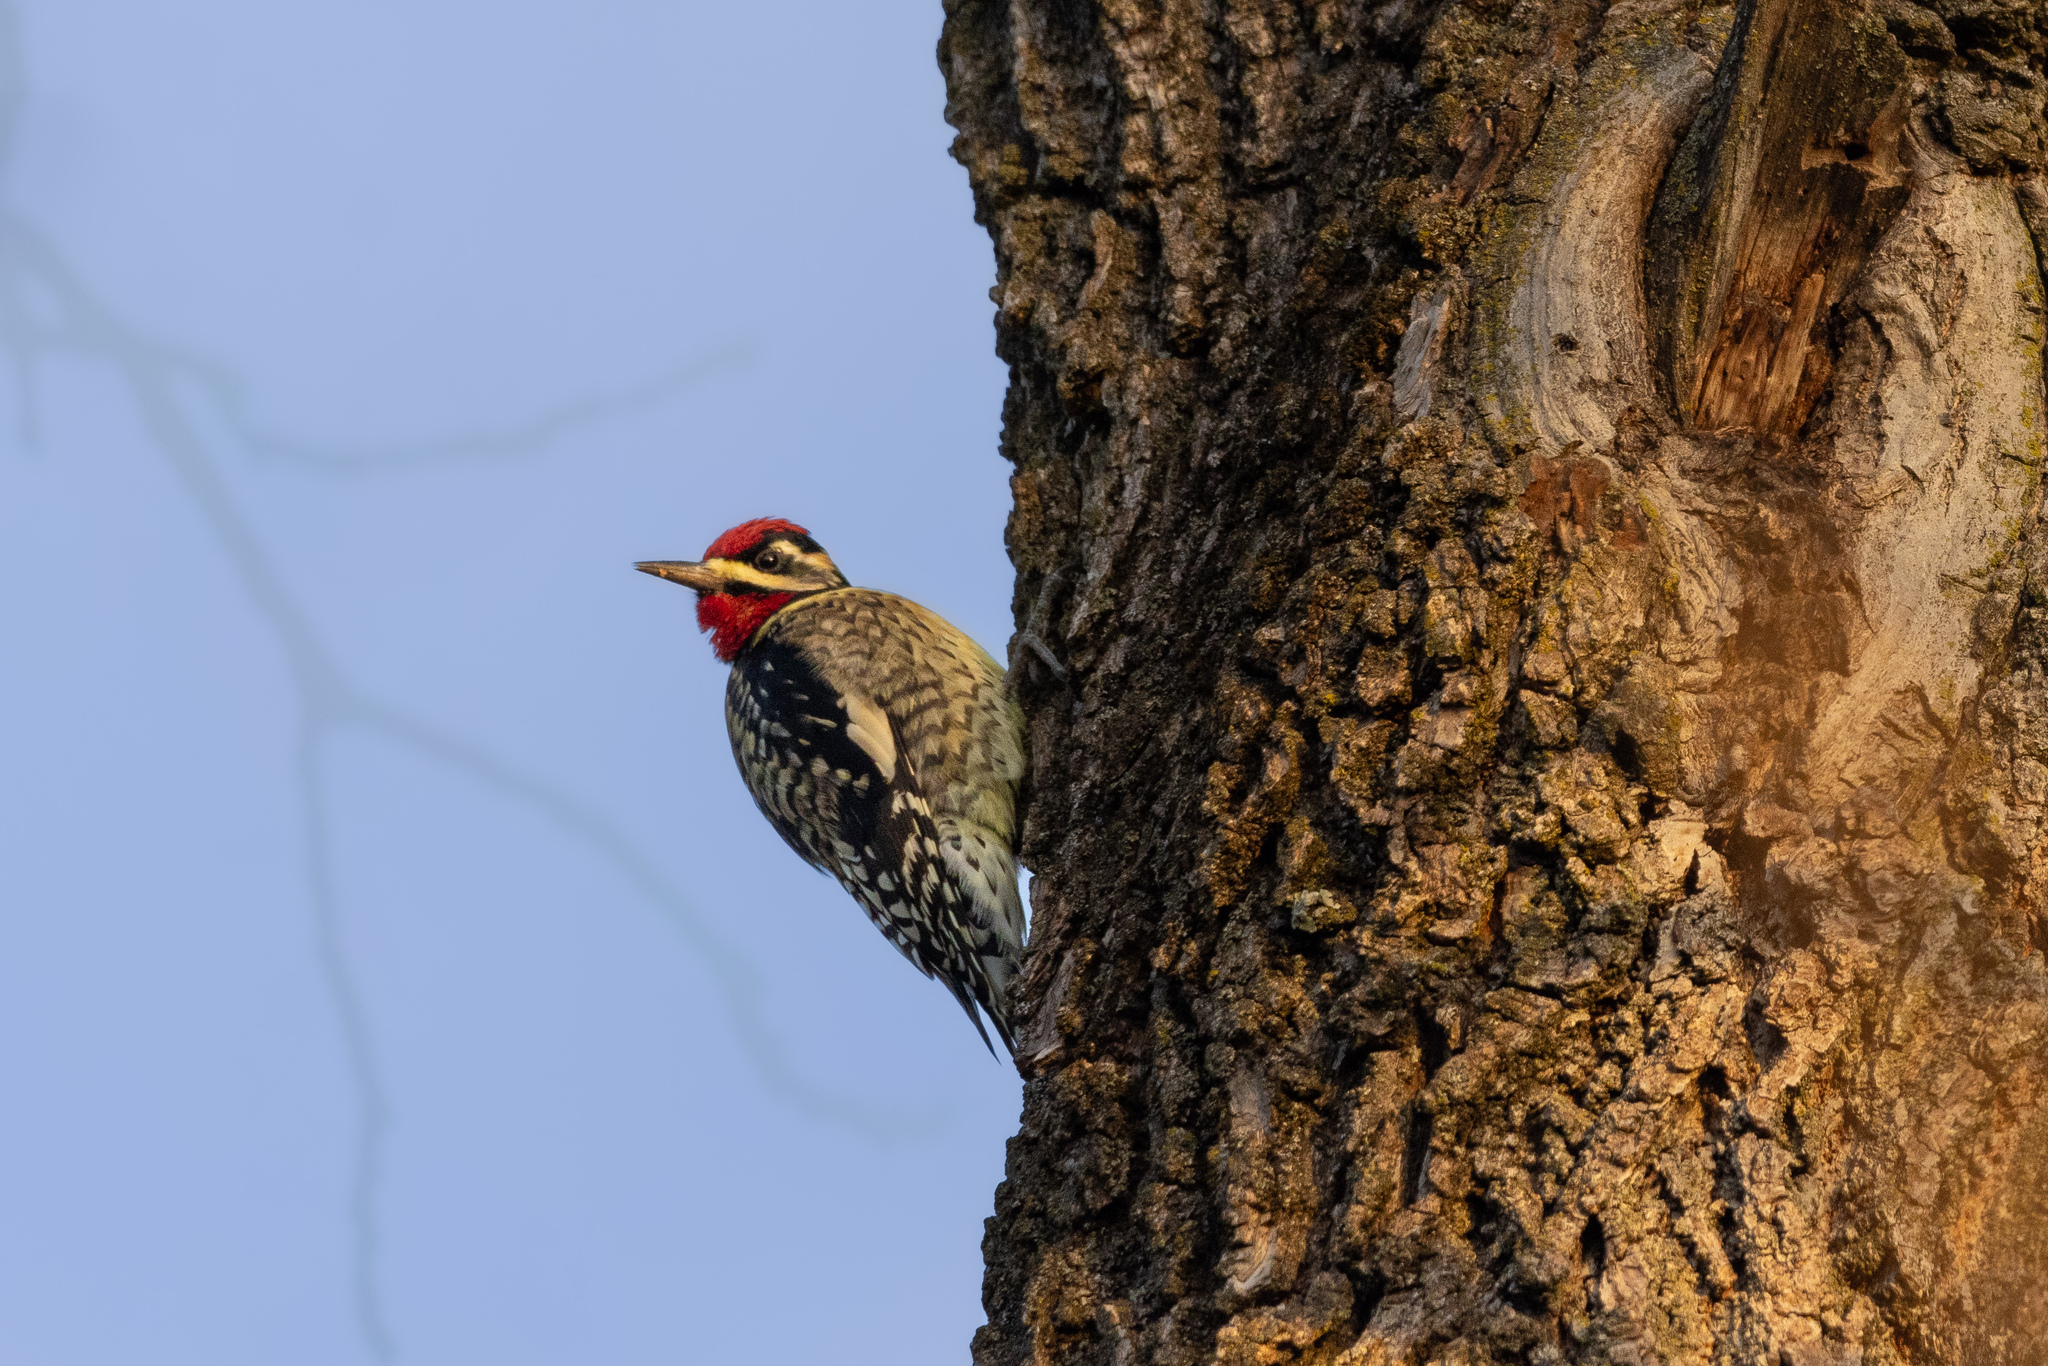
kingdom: Animalia
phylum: Chordata
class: Aves
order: Piciformes
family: Picidae
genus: Sphyrapicus
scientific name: Sphyrapicus varius
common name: Yellow-bellied sapsucker
